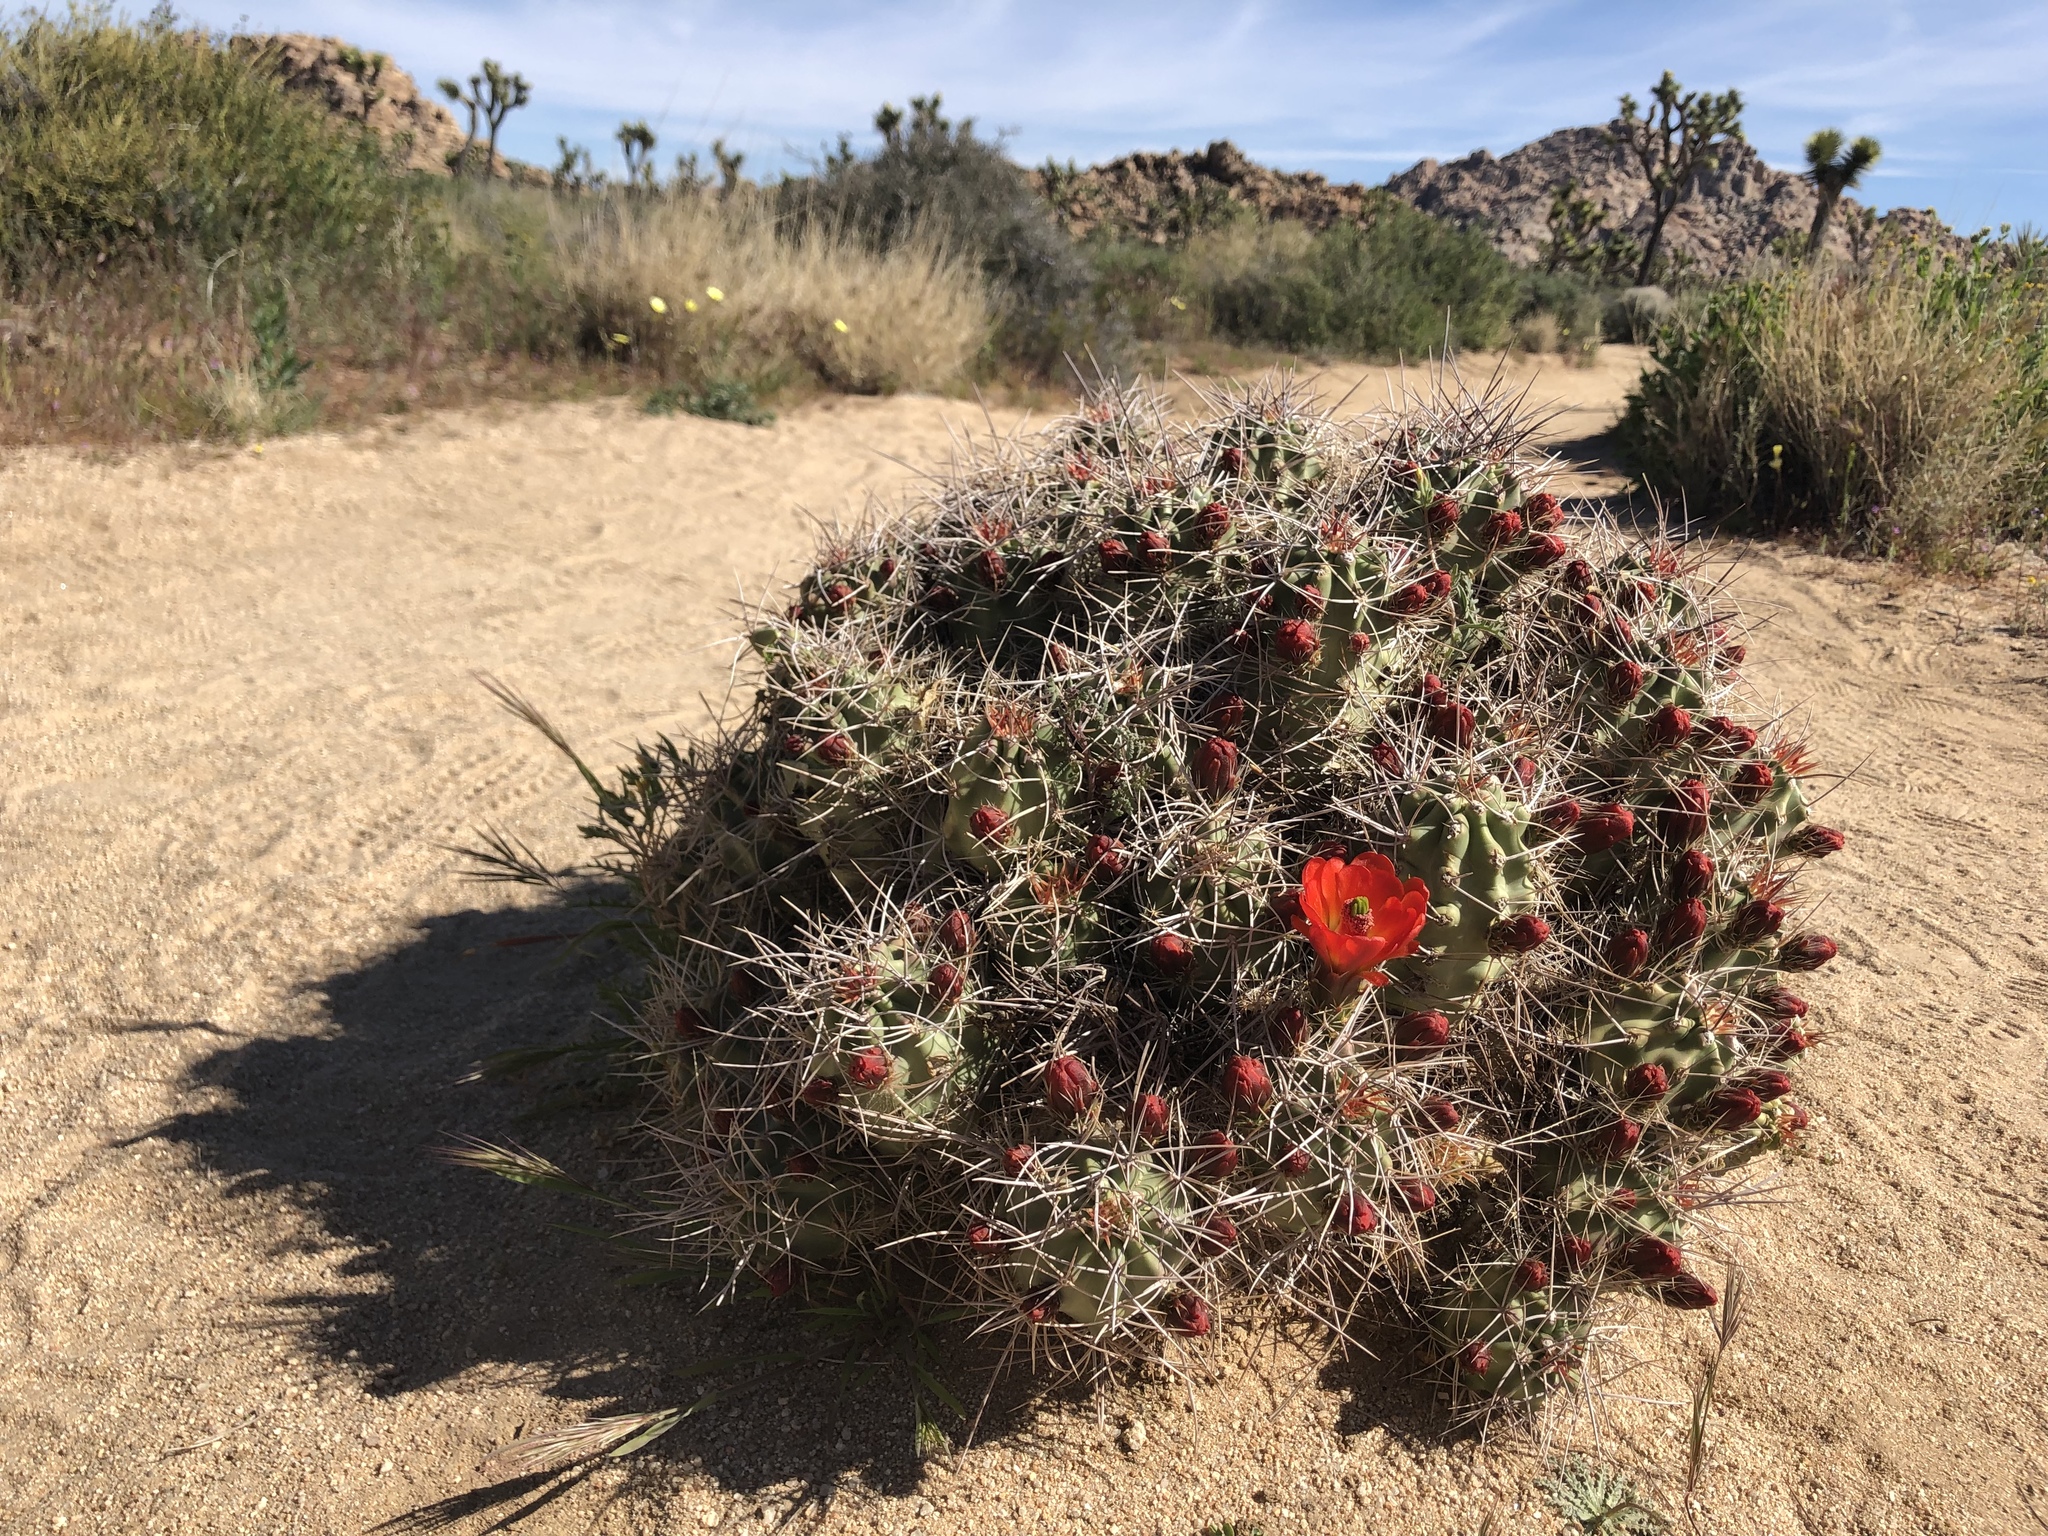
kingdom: Plantae
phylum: Tracheophyta
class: Magnoliopsida
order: Caryophyllales
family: Cactaceae
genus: Echinocereus
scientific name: Echinocereus triglochidiatus
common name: Claretcup hedgehog
